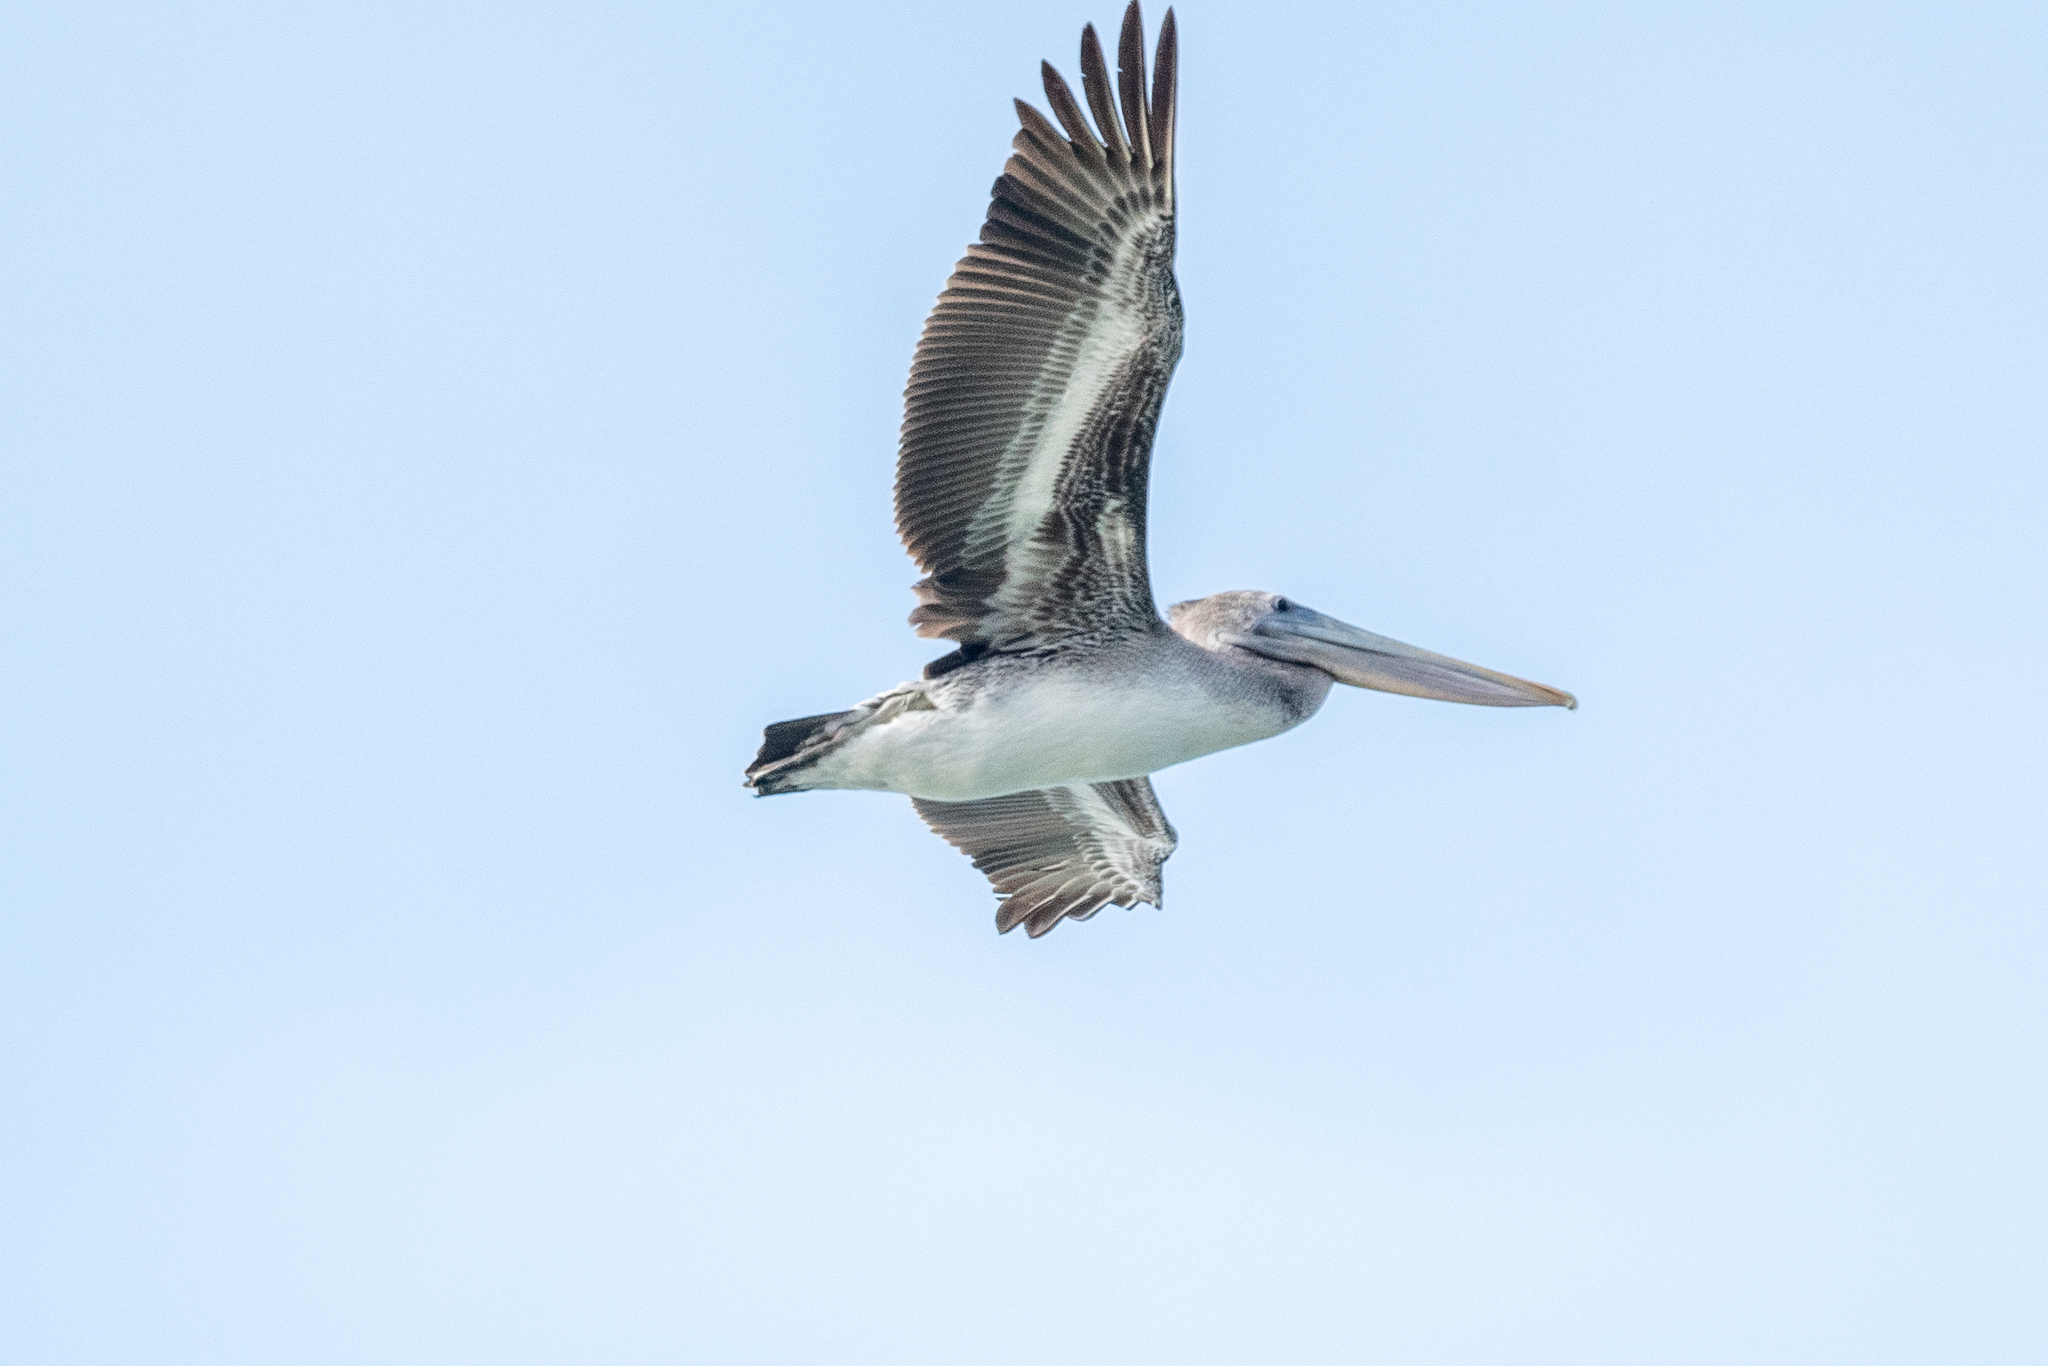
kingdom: Animalia
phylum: Chordata
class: Aves
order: Pelecaniformes
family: Pelecanidae
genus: Pelecanus
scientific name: Pelecanus occidentalis
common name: Brown pelican
